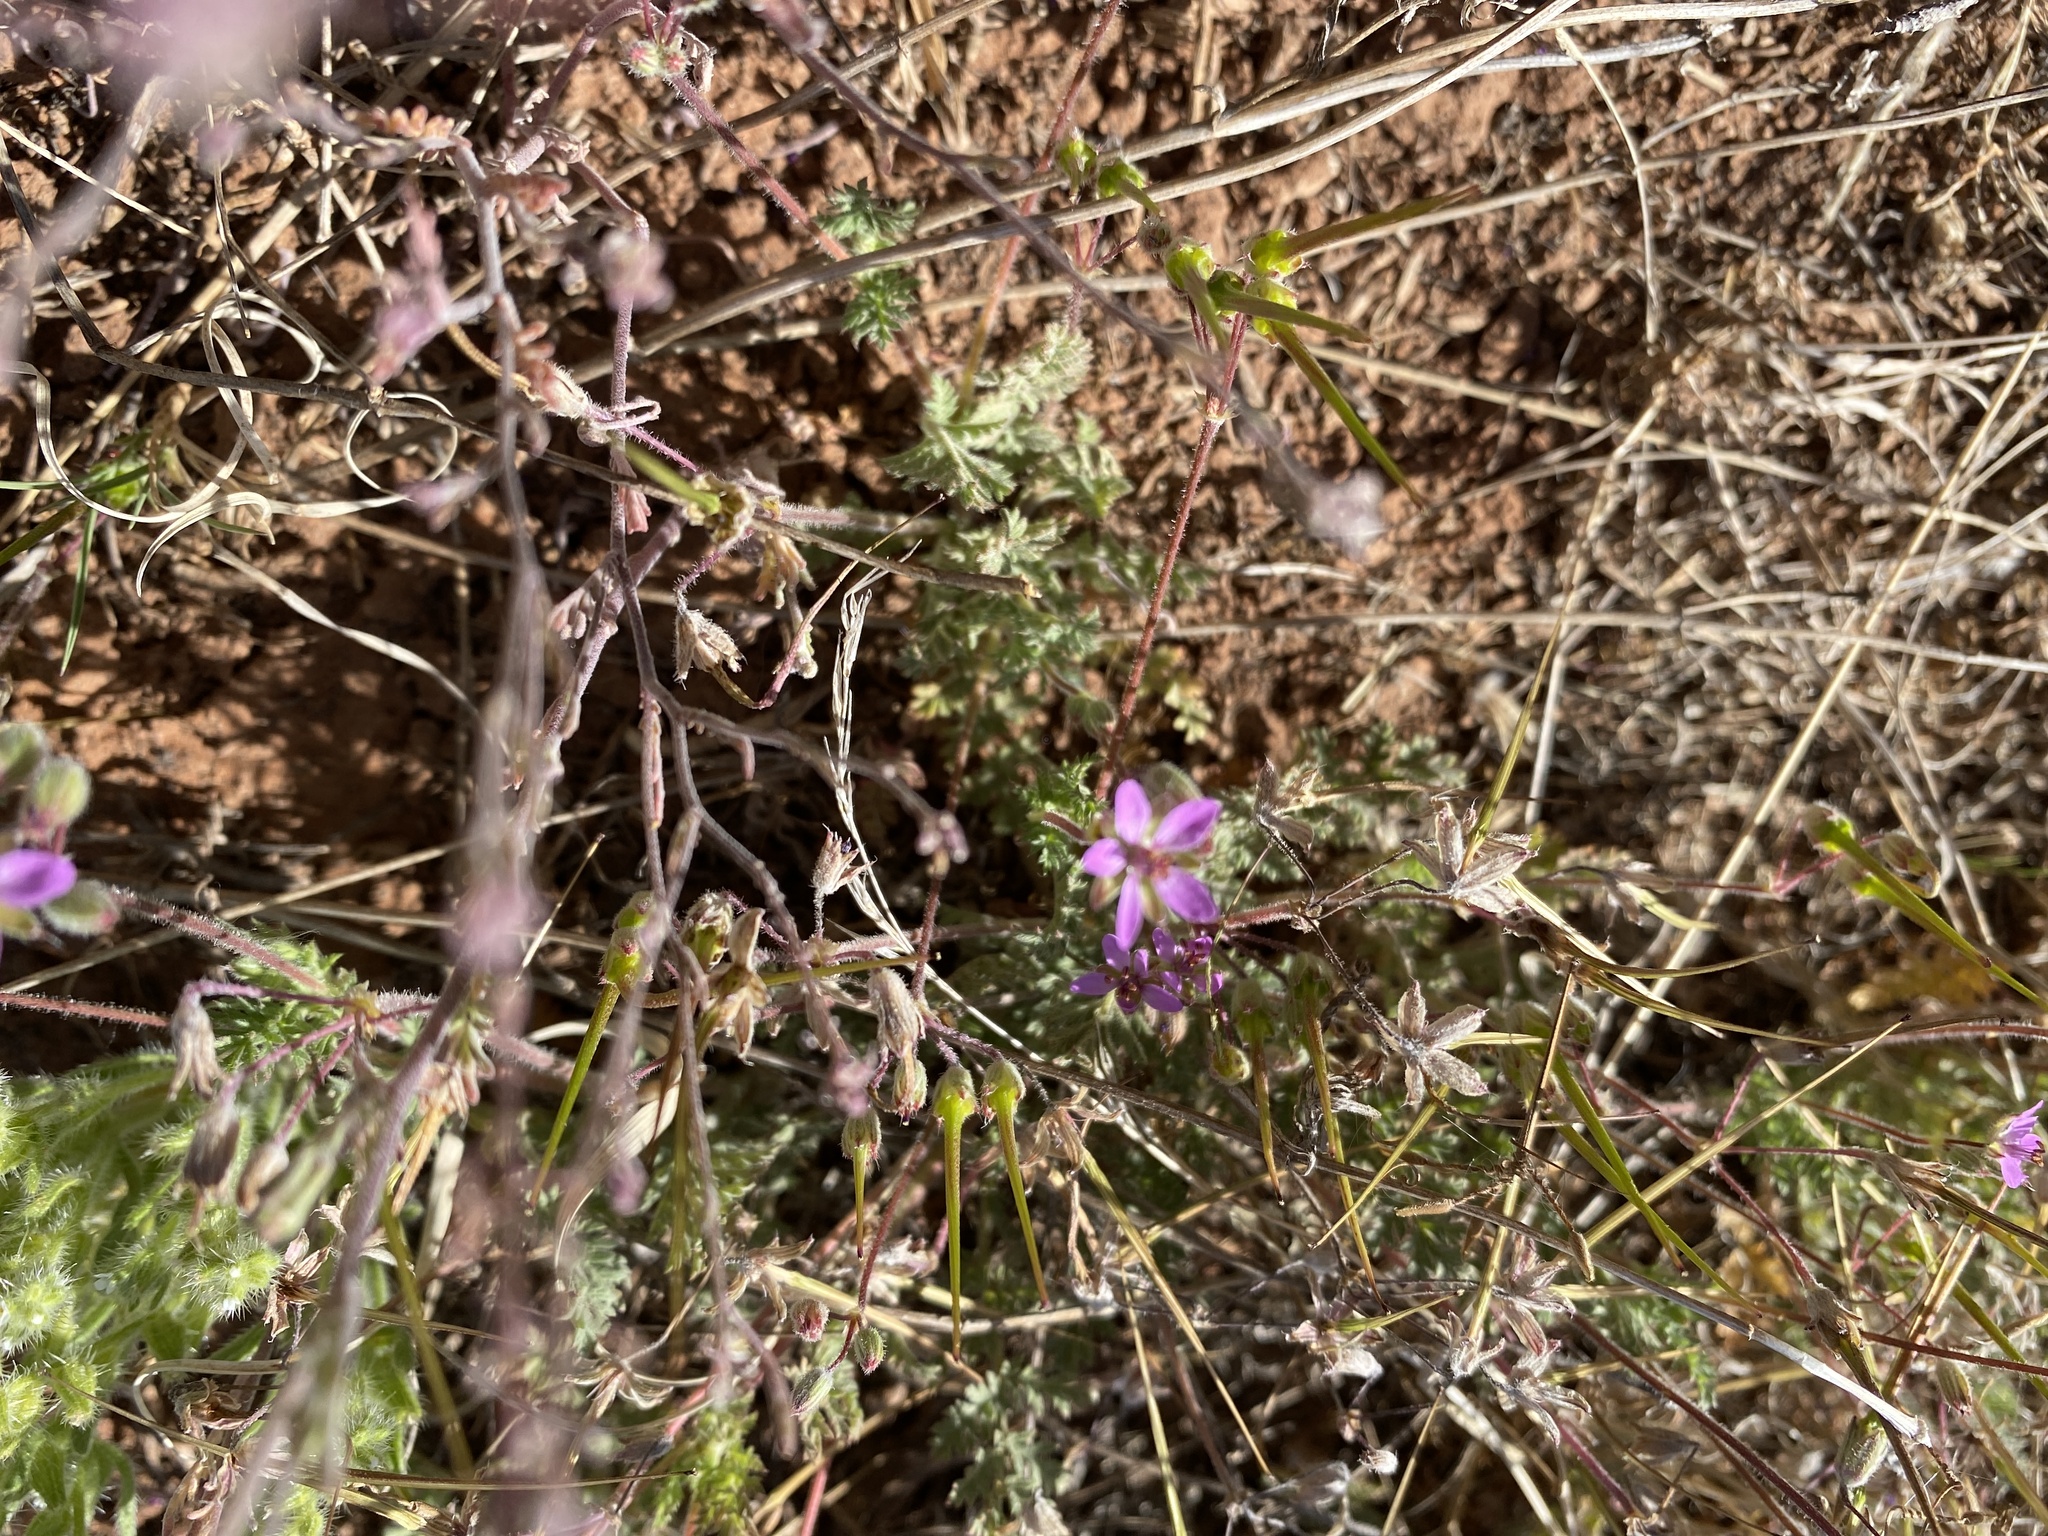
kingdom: Plantae
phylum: Tracheophyta
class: Magnoliopsida
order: Geraniales
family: Geraniaceae
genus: Erodium
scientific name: Erodium cicutarium
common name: Common stork's-bill
